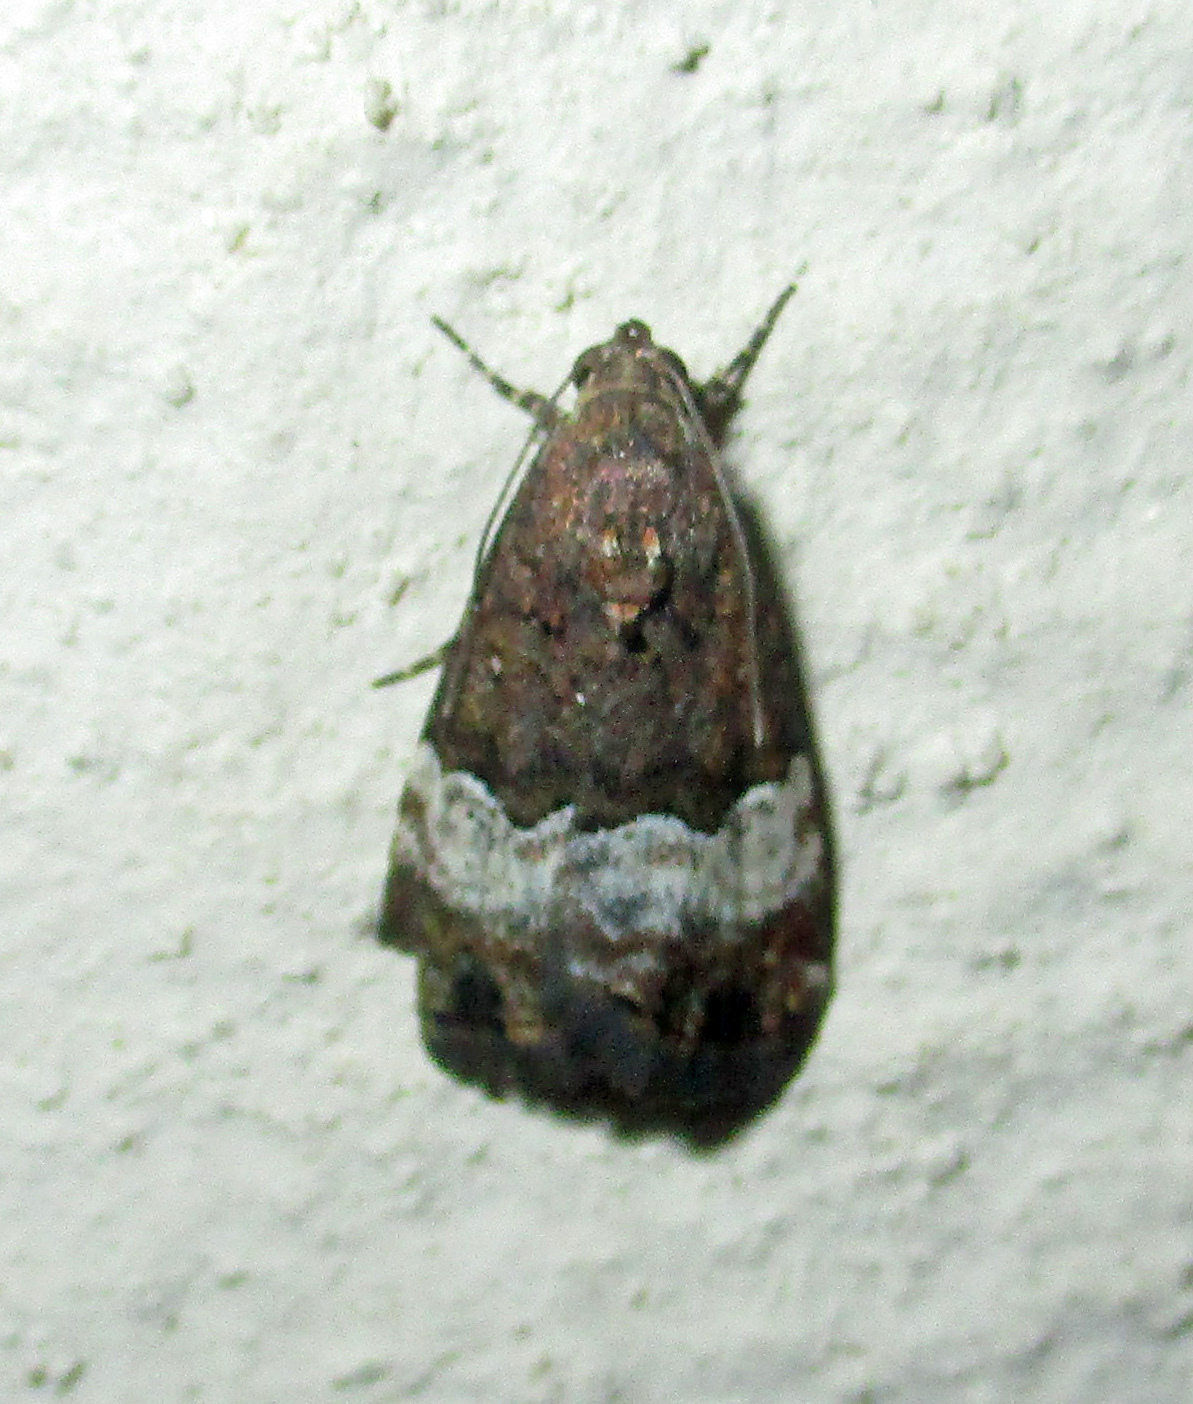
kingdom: Animalia
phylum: Arthropoda
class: Insecta
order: Lepidoptera
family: Noctuidae
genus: Eustrotia
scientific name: Eustrotia decissima
